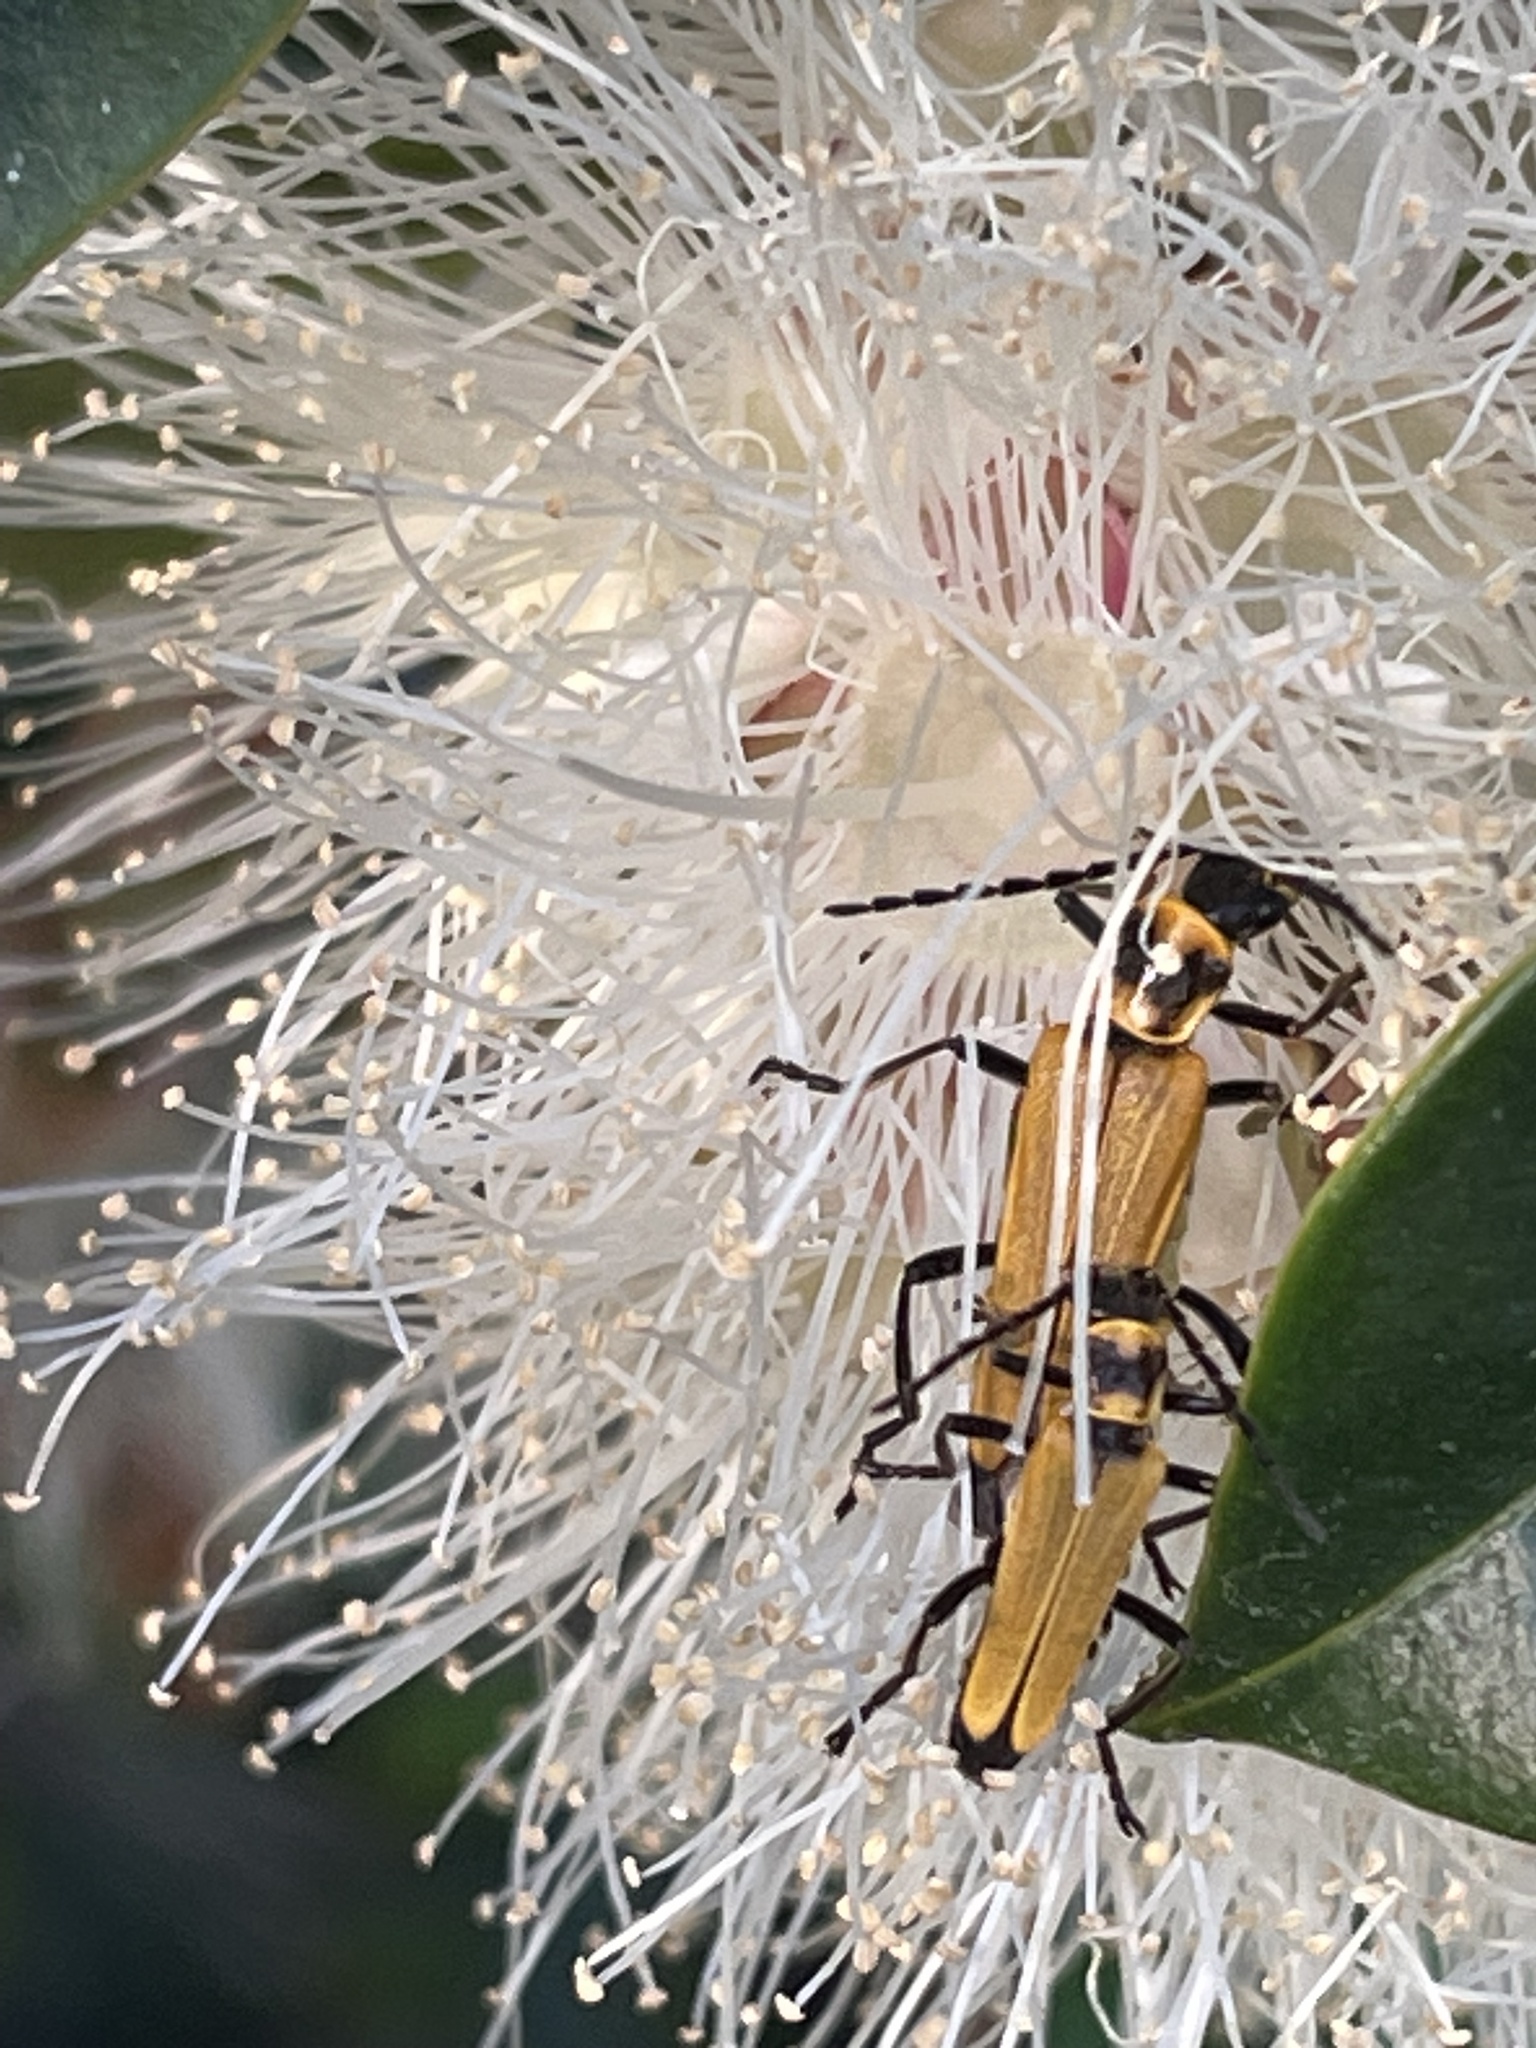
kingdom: Animalia
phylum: Arthropoda
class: Insecta
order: Coleoptera
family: Cantharidae
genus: Chauliognathus
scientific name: Chauliognathus
